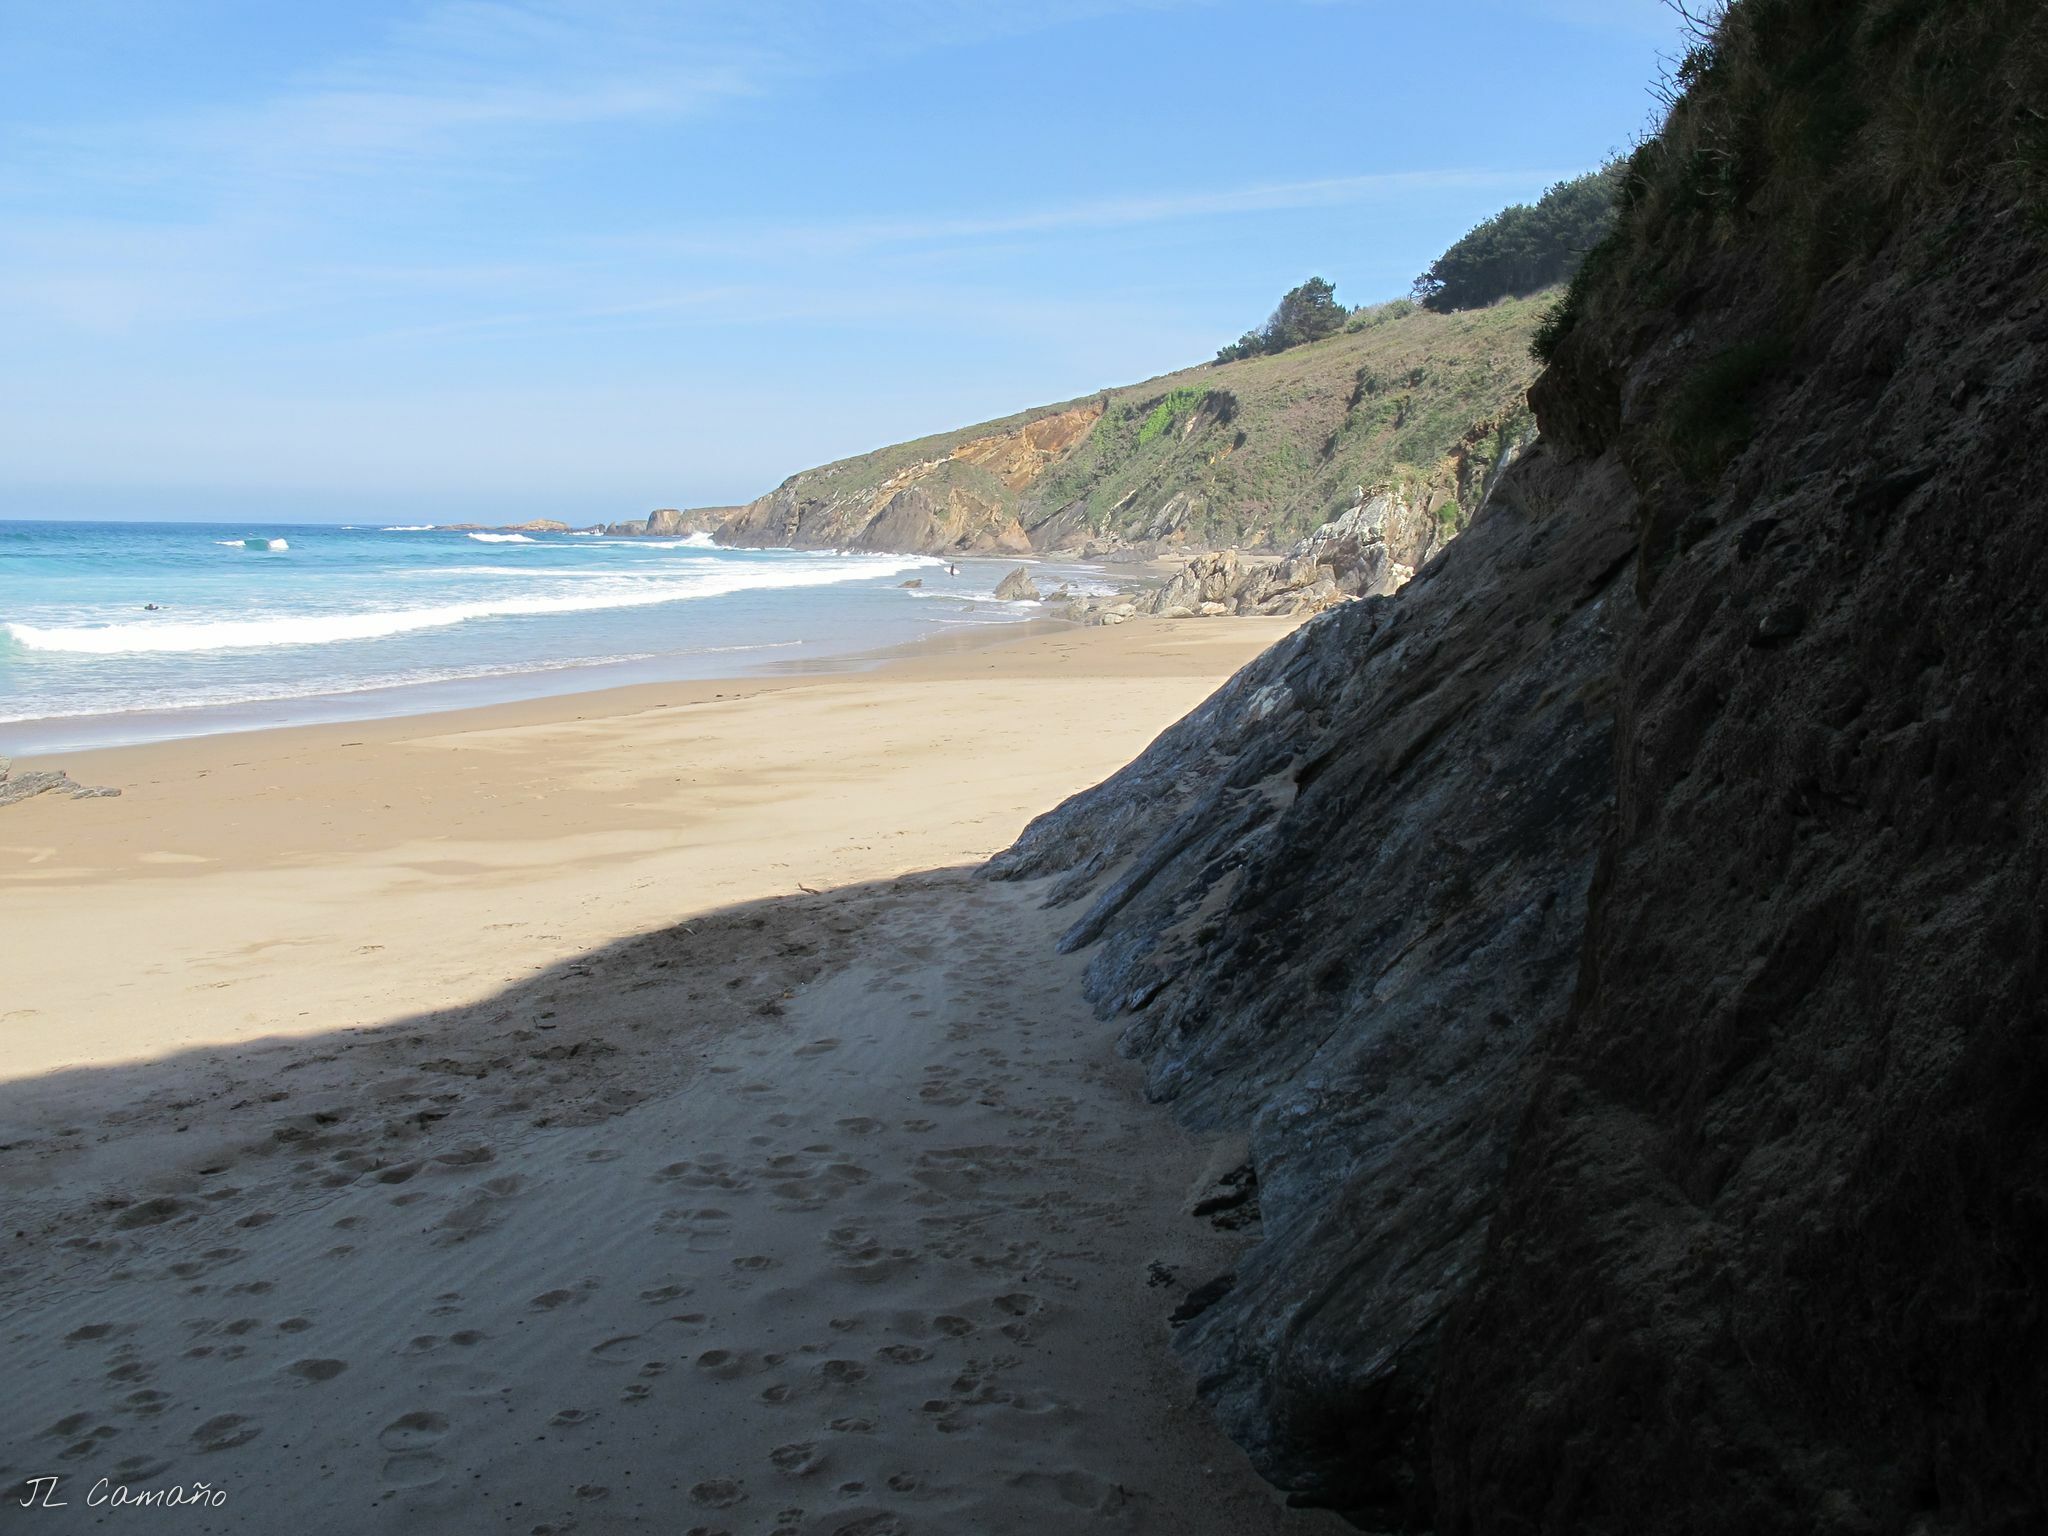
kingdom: Plantae
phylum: Tracheophyta
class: Polypodiopsida
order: Polypodiales
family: Aspleniaceae
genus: Asplenium
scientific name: Asplenium marinum
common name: Sea spleenwort
